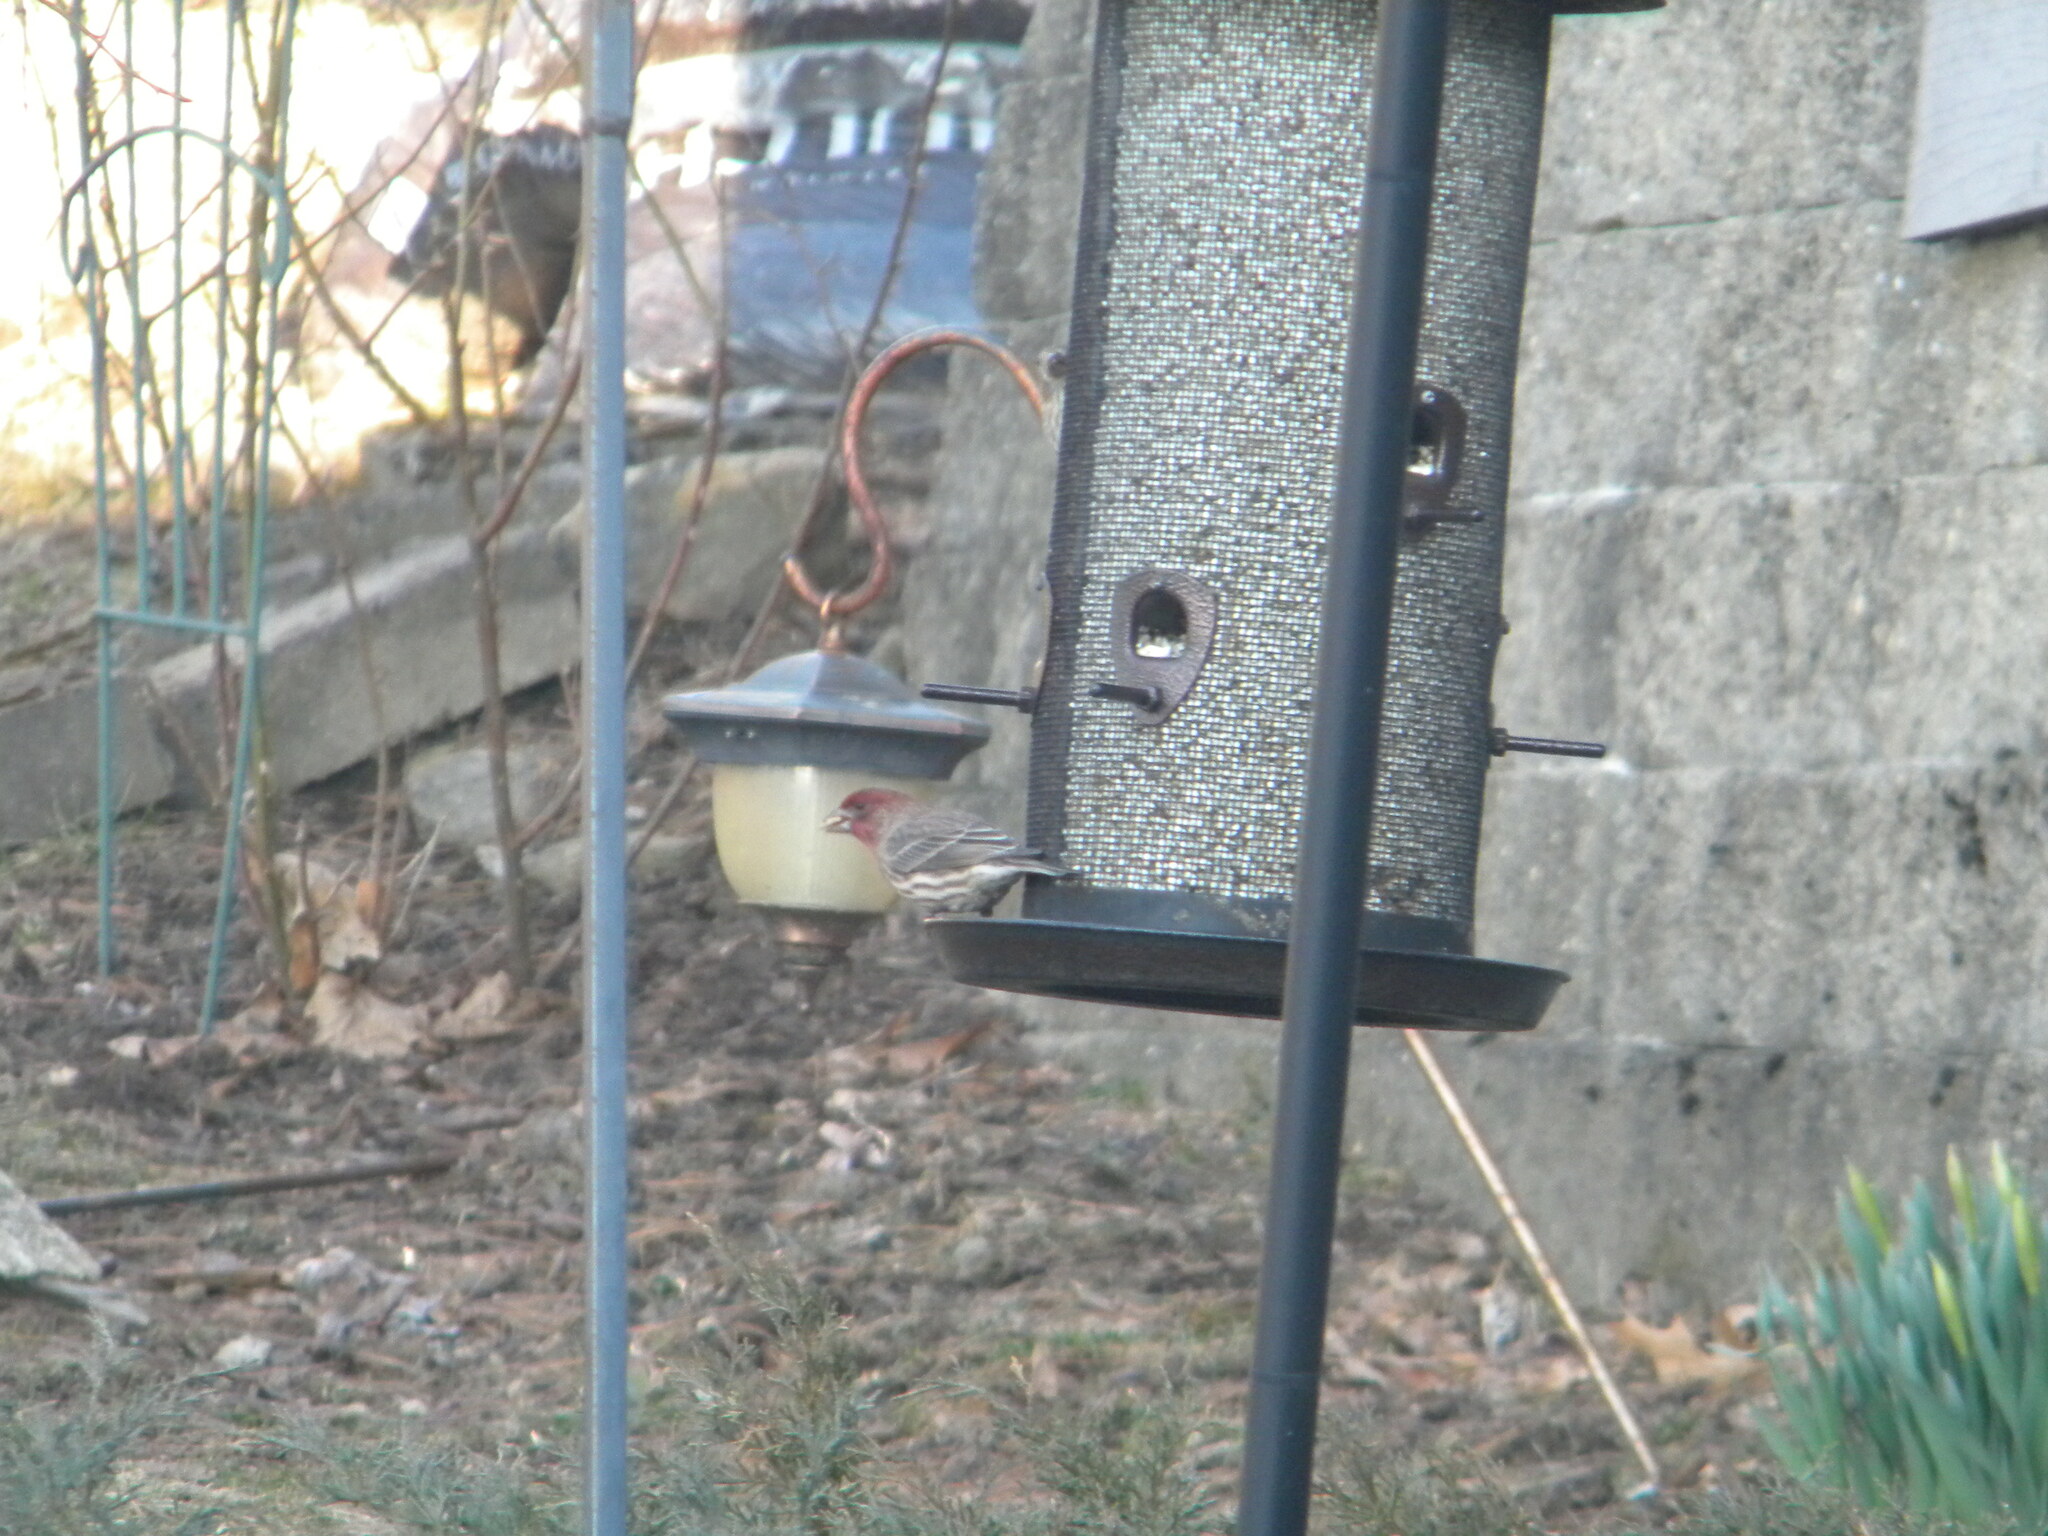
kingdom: Animalia
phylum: Chordata
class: Aves
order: Passeriformes
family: Fringillidae
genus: Haemorhous
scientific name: Haemorhous mexicanus
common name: House finch
